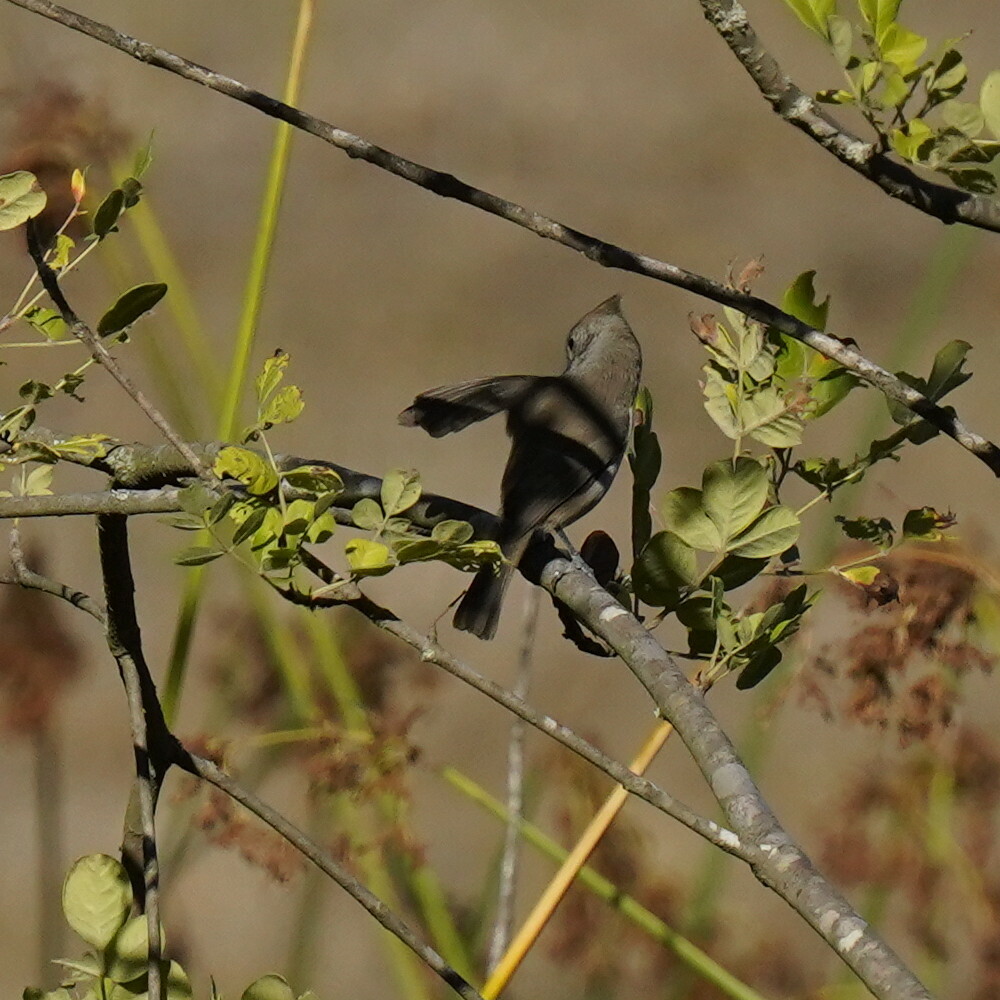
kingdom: Animalia
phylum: Chordata
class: Aves
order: Passeriformes
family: Paridae
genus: Baeolophus
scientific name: Baeolophus inornatus
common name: Oak titmouse
